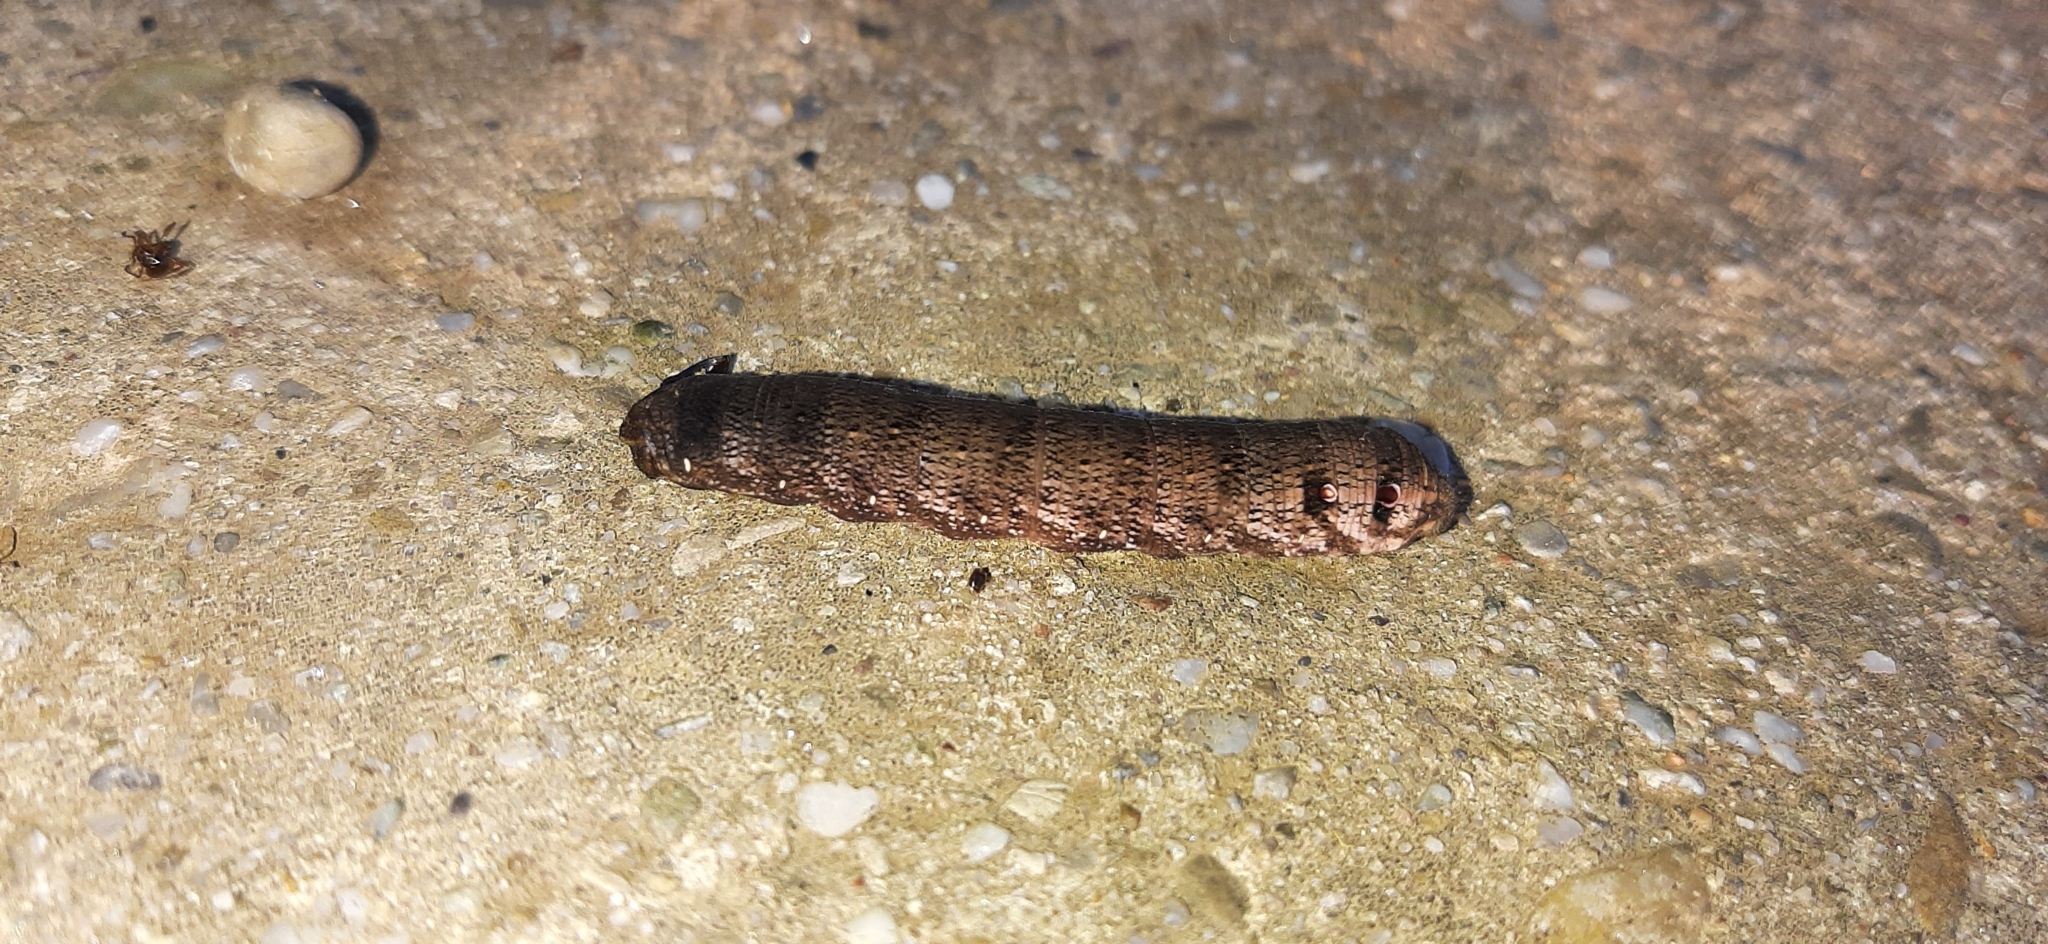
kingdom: Animalia
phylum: Arthropoda
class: Insecta
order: Lepidoptera
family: Sphingidae
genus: Deilephila
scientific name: Deilephila porcellus
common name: Small elephant hawk-moth
